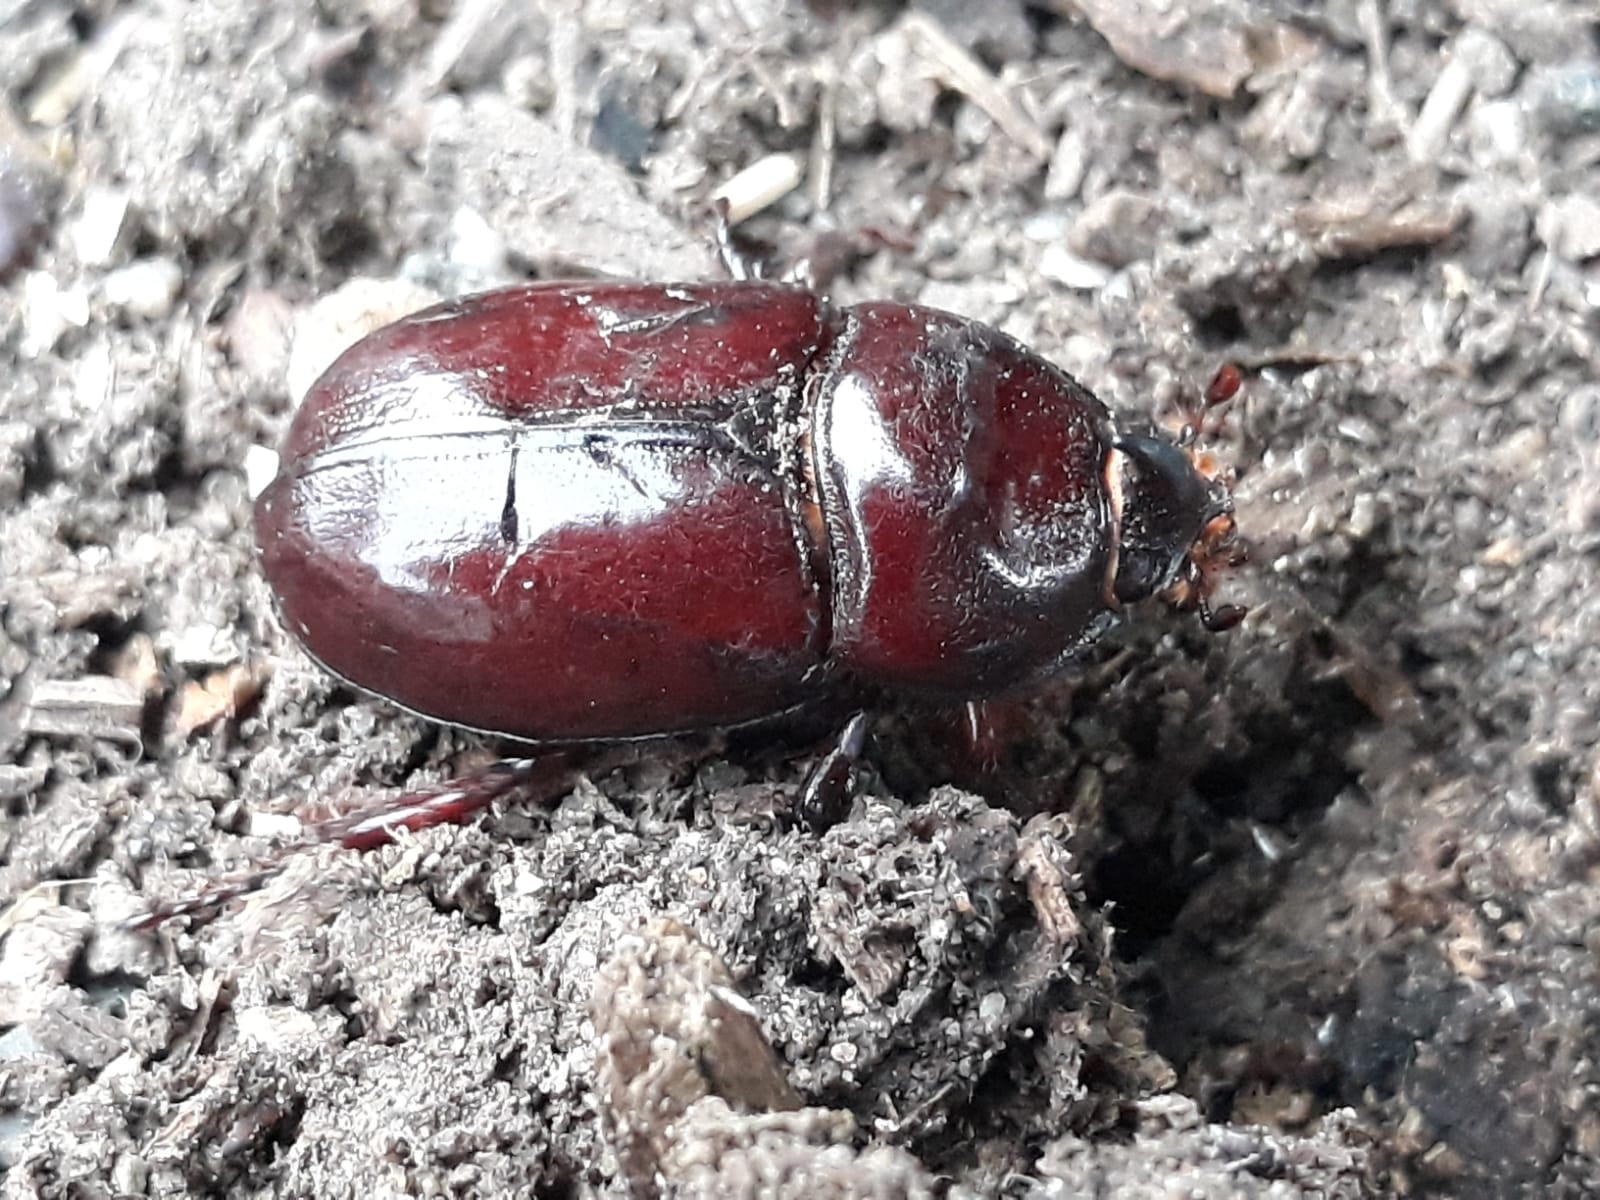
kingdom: Animalia
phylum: Arthropoda
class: Insecta
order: Coleoptera
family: Scarabaeidae
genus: Oryctes
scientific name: Oryctes nasicornis
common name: European rhinoceros beetle
